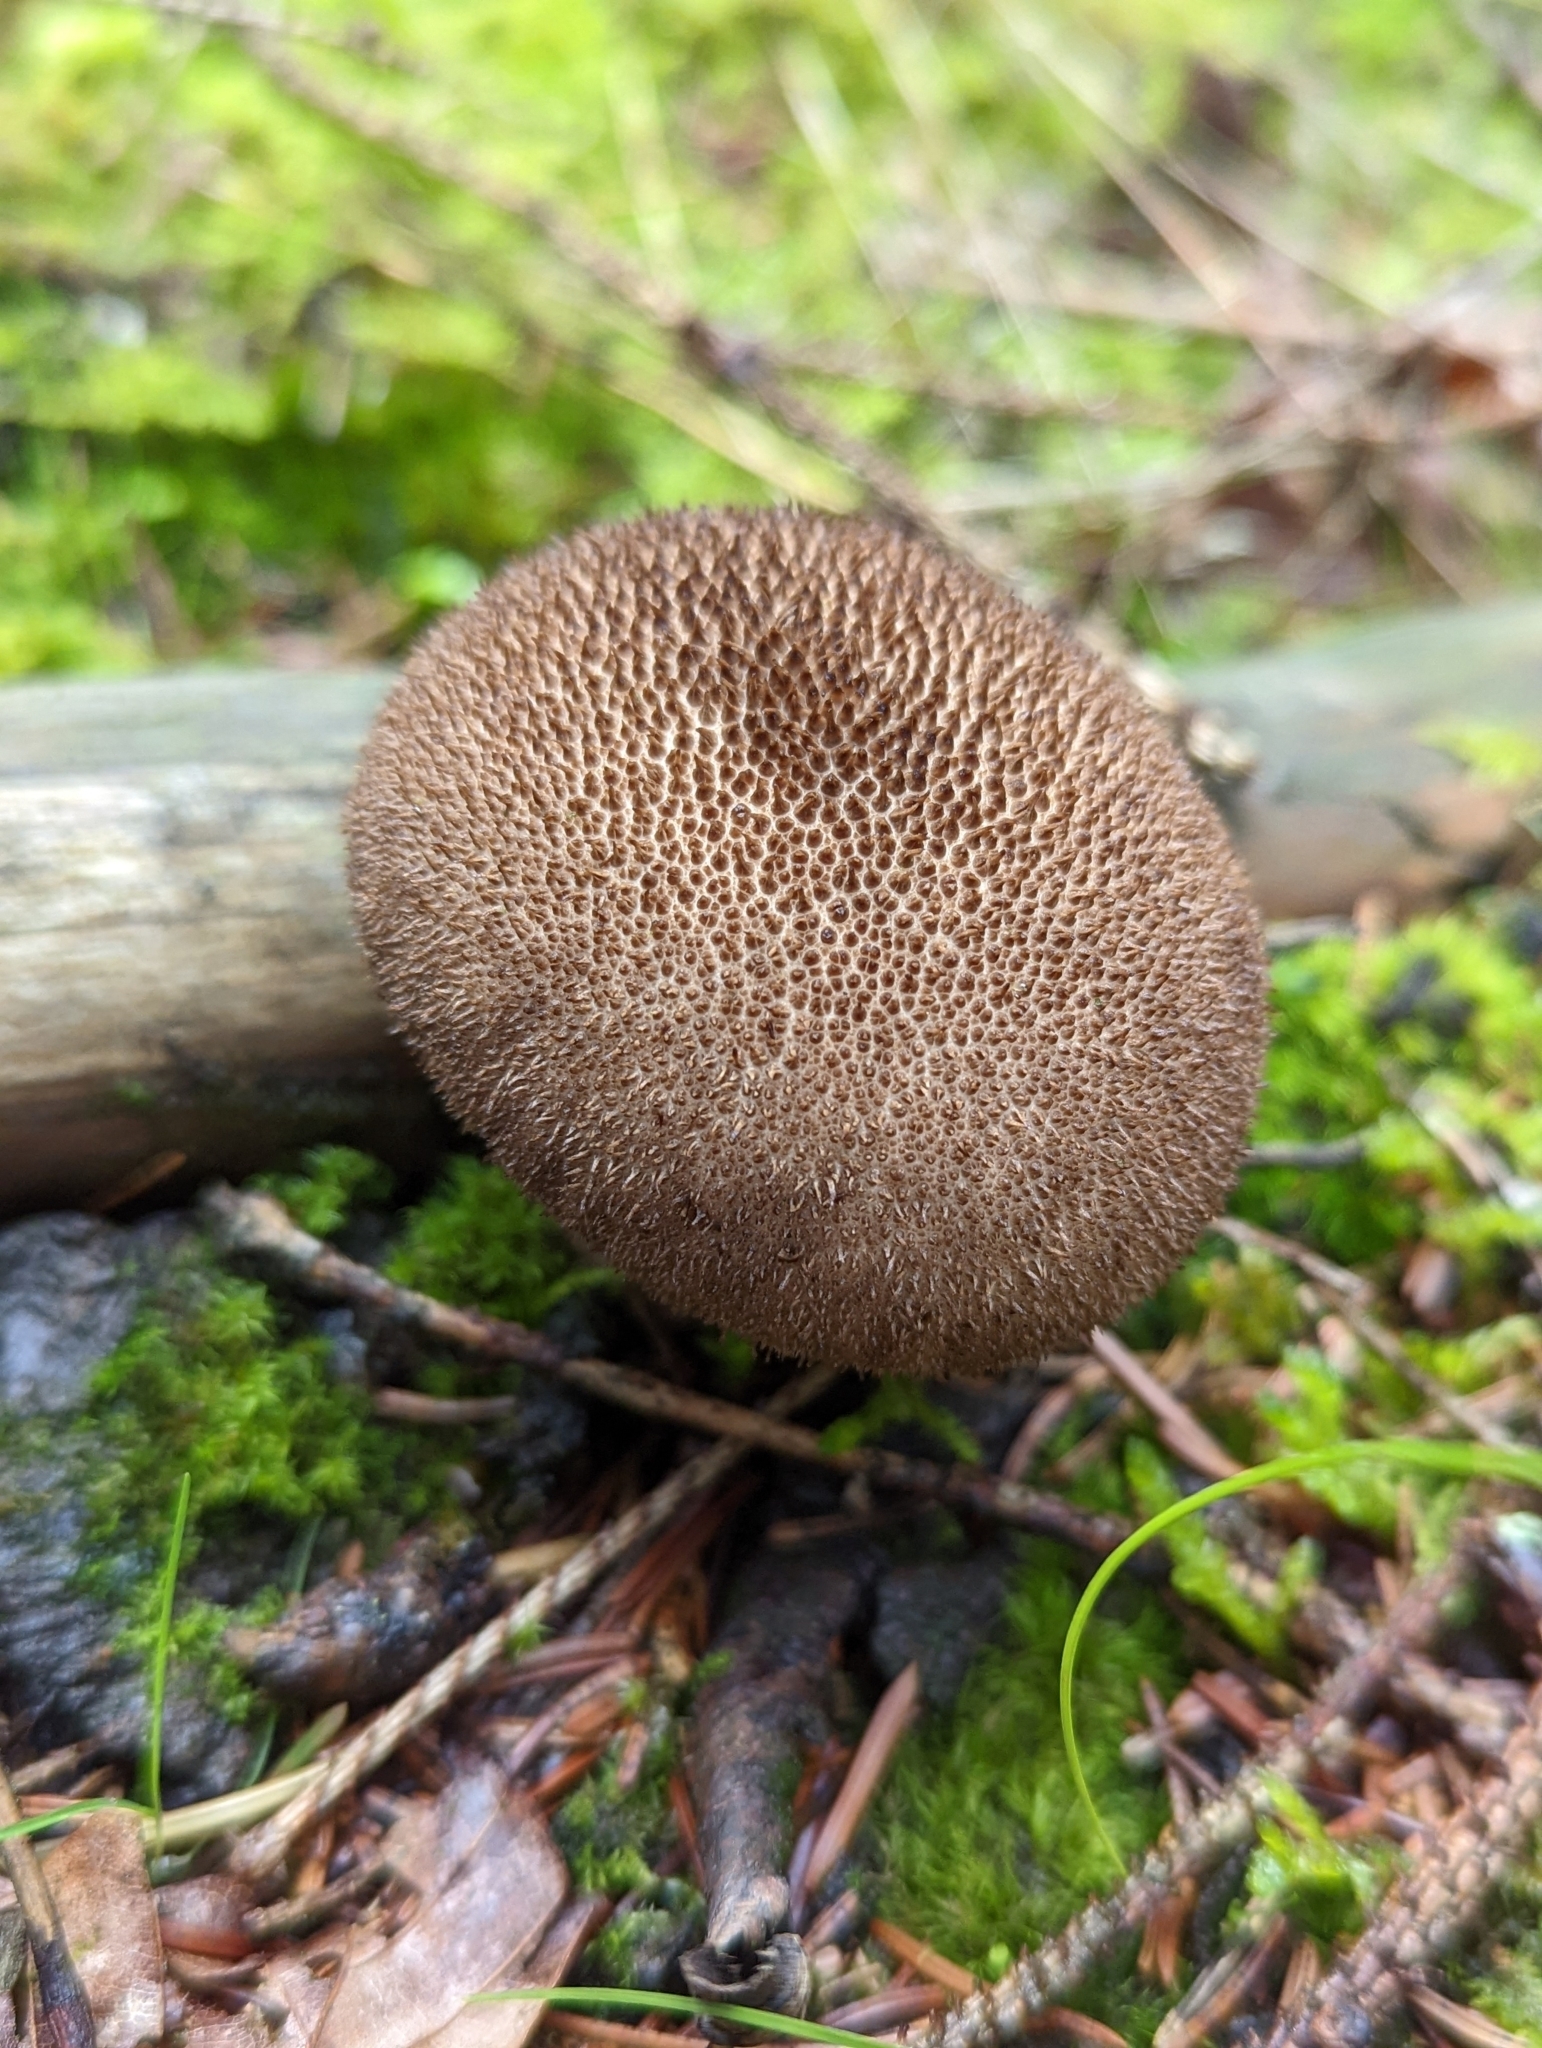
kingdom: Fungi
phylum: Basidiomycota
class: Agaricomycetes
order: Agaricales
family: Lycoperdaceae
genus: Lycoperdon
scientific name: Lycoperdon nigrescens
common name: Blackish puffball
